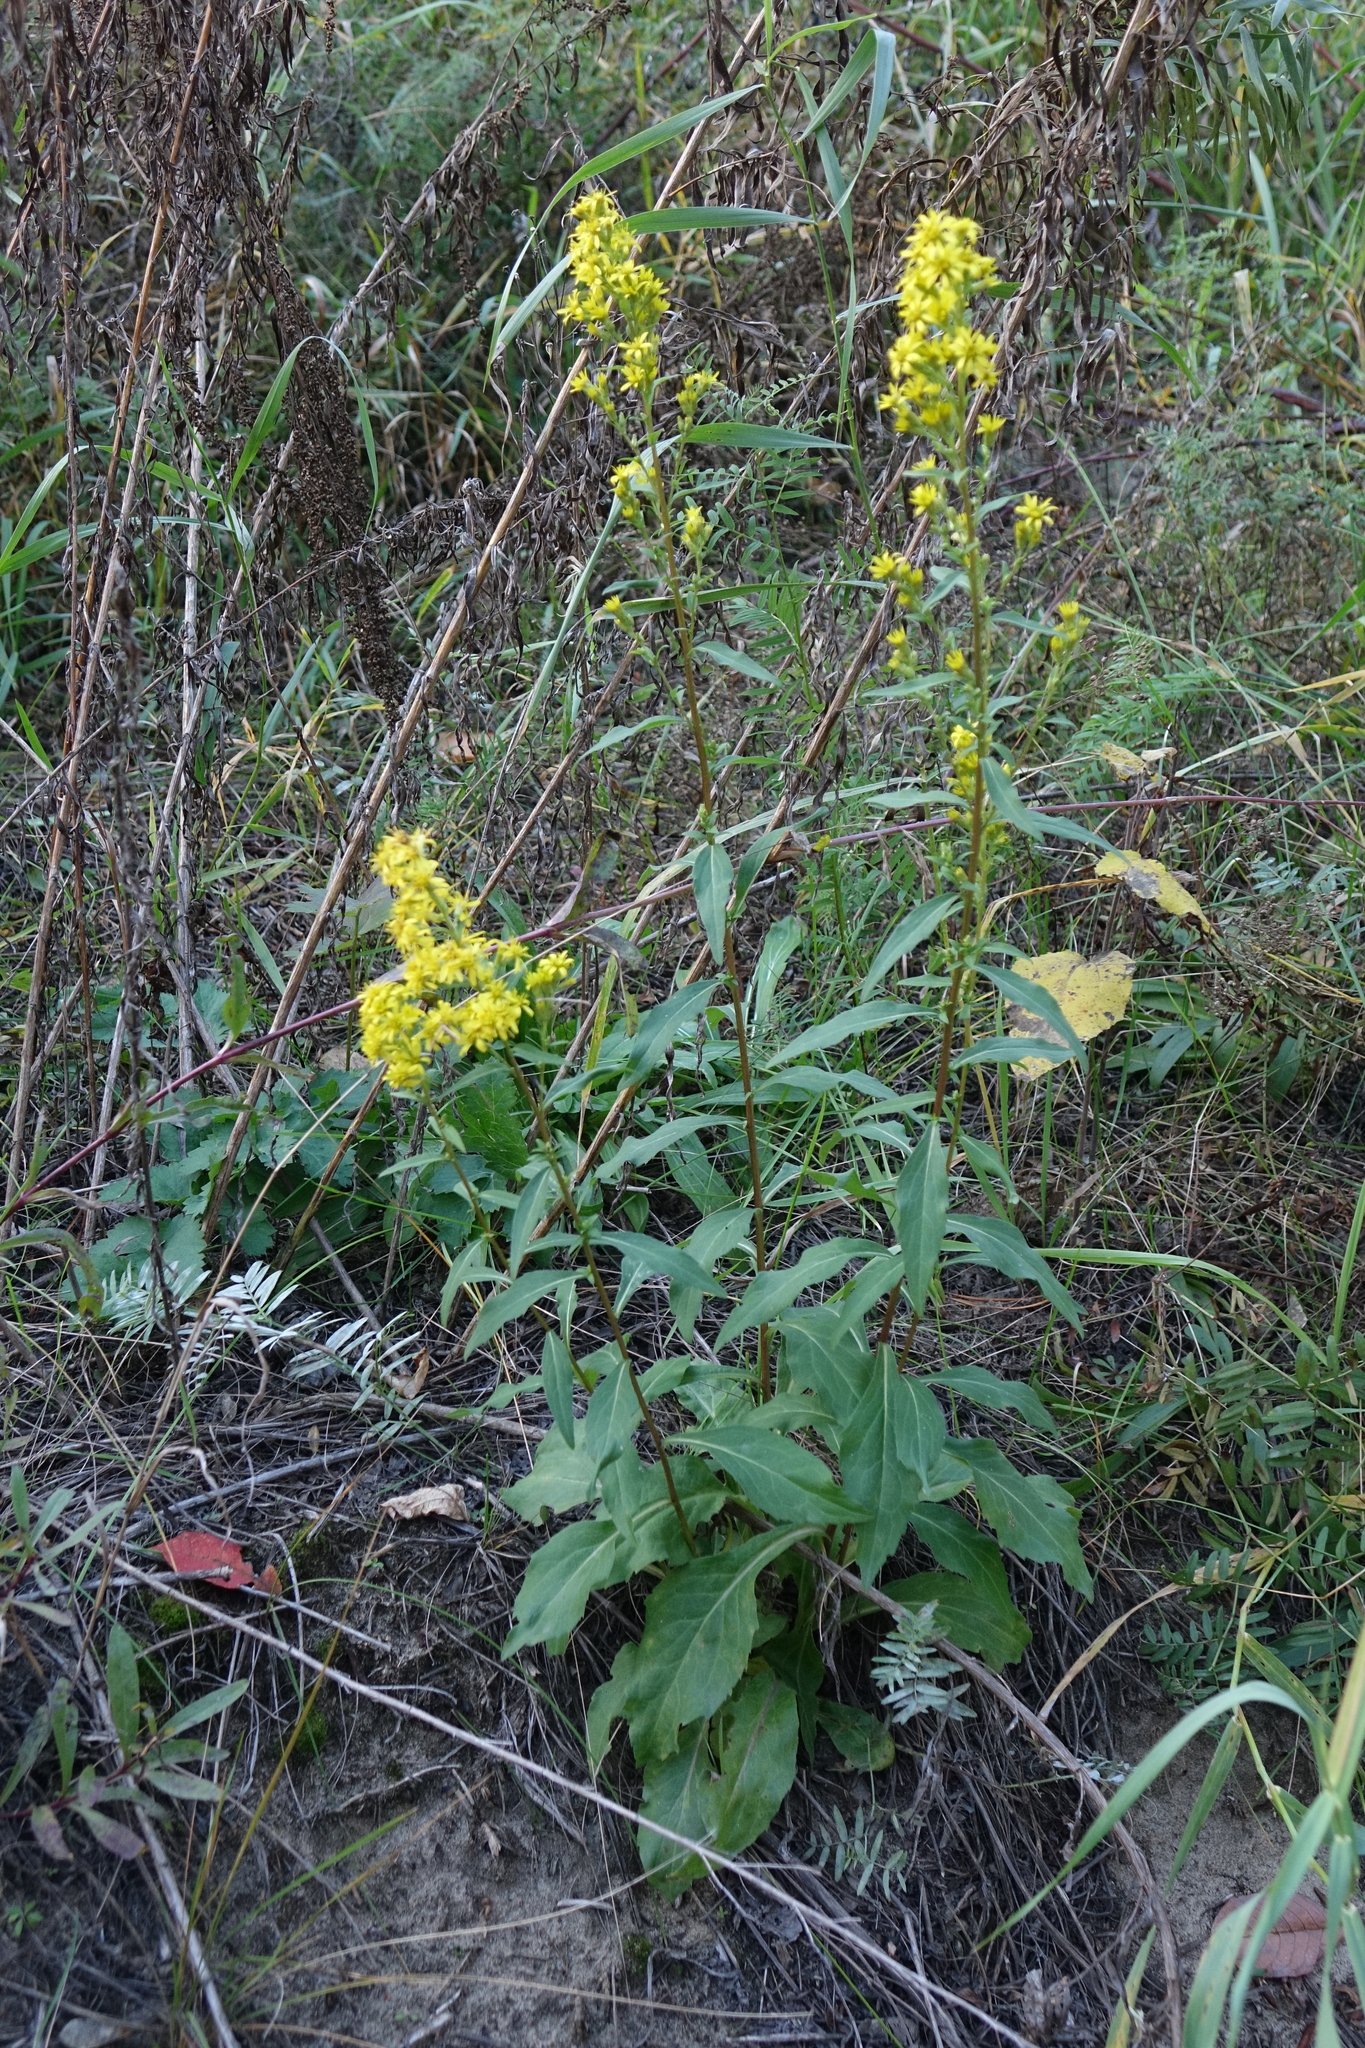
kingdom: Plantae
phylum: Tracheophyta
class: Magnoliopsida
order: Asterales
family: Asteraceae
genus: Solidago
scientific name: Solidago virgaurea
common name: Goldenrod
